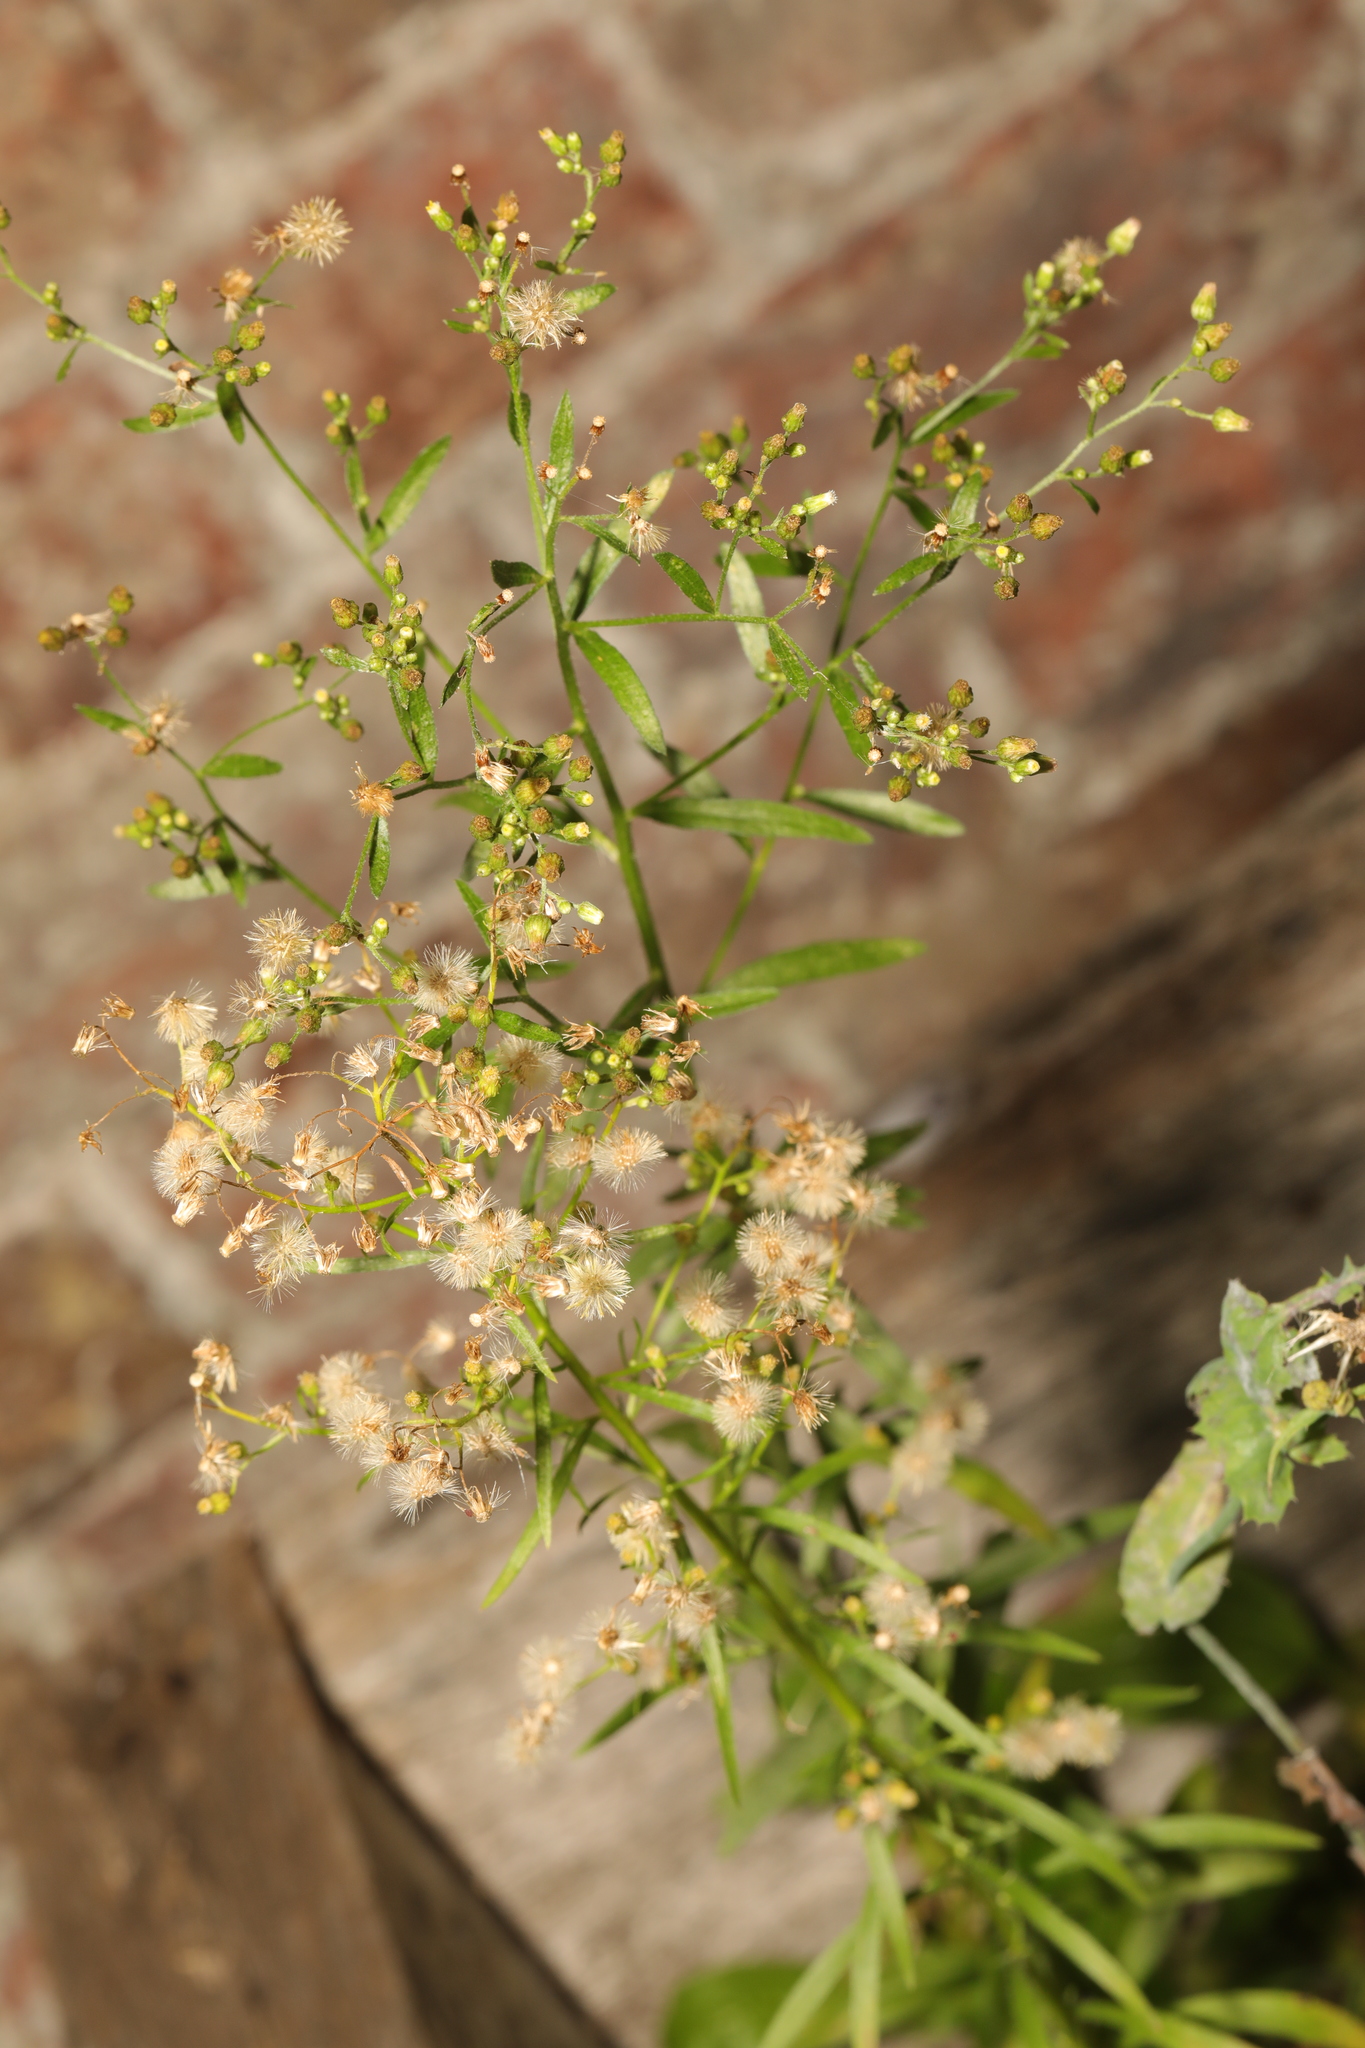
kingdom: Plantae
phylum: Tracheophyta
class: Magnoliopsida
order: Asterales
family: Asteraceae
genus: Erigeron
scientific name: Erigeron canadensis
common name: Canadian fleabane
